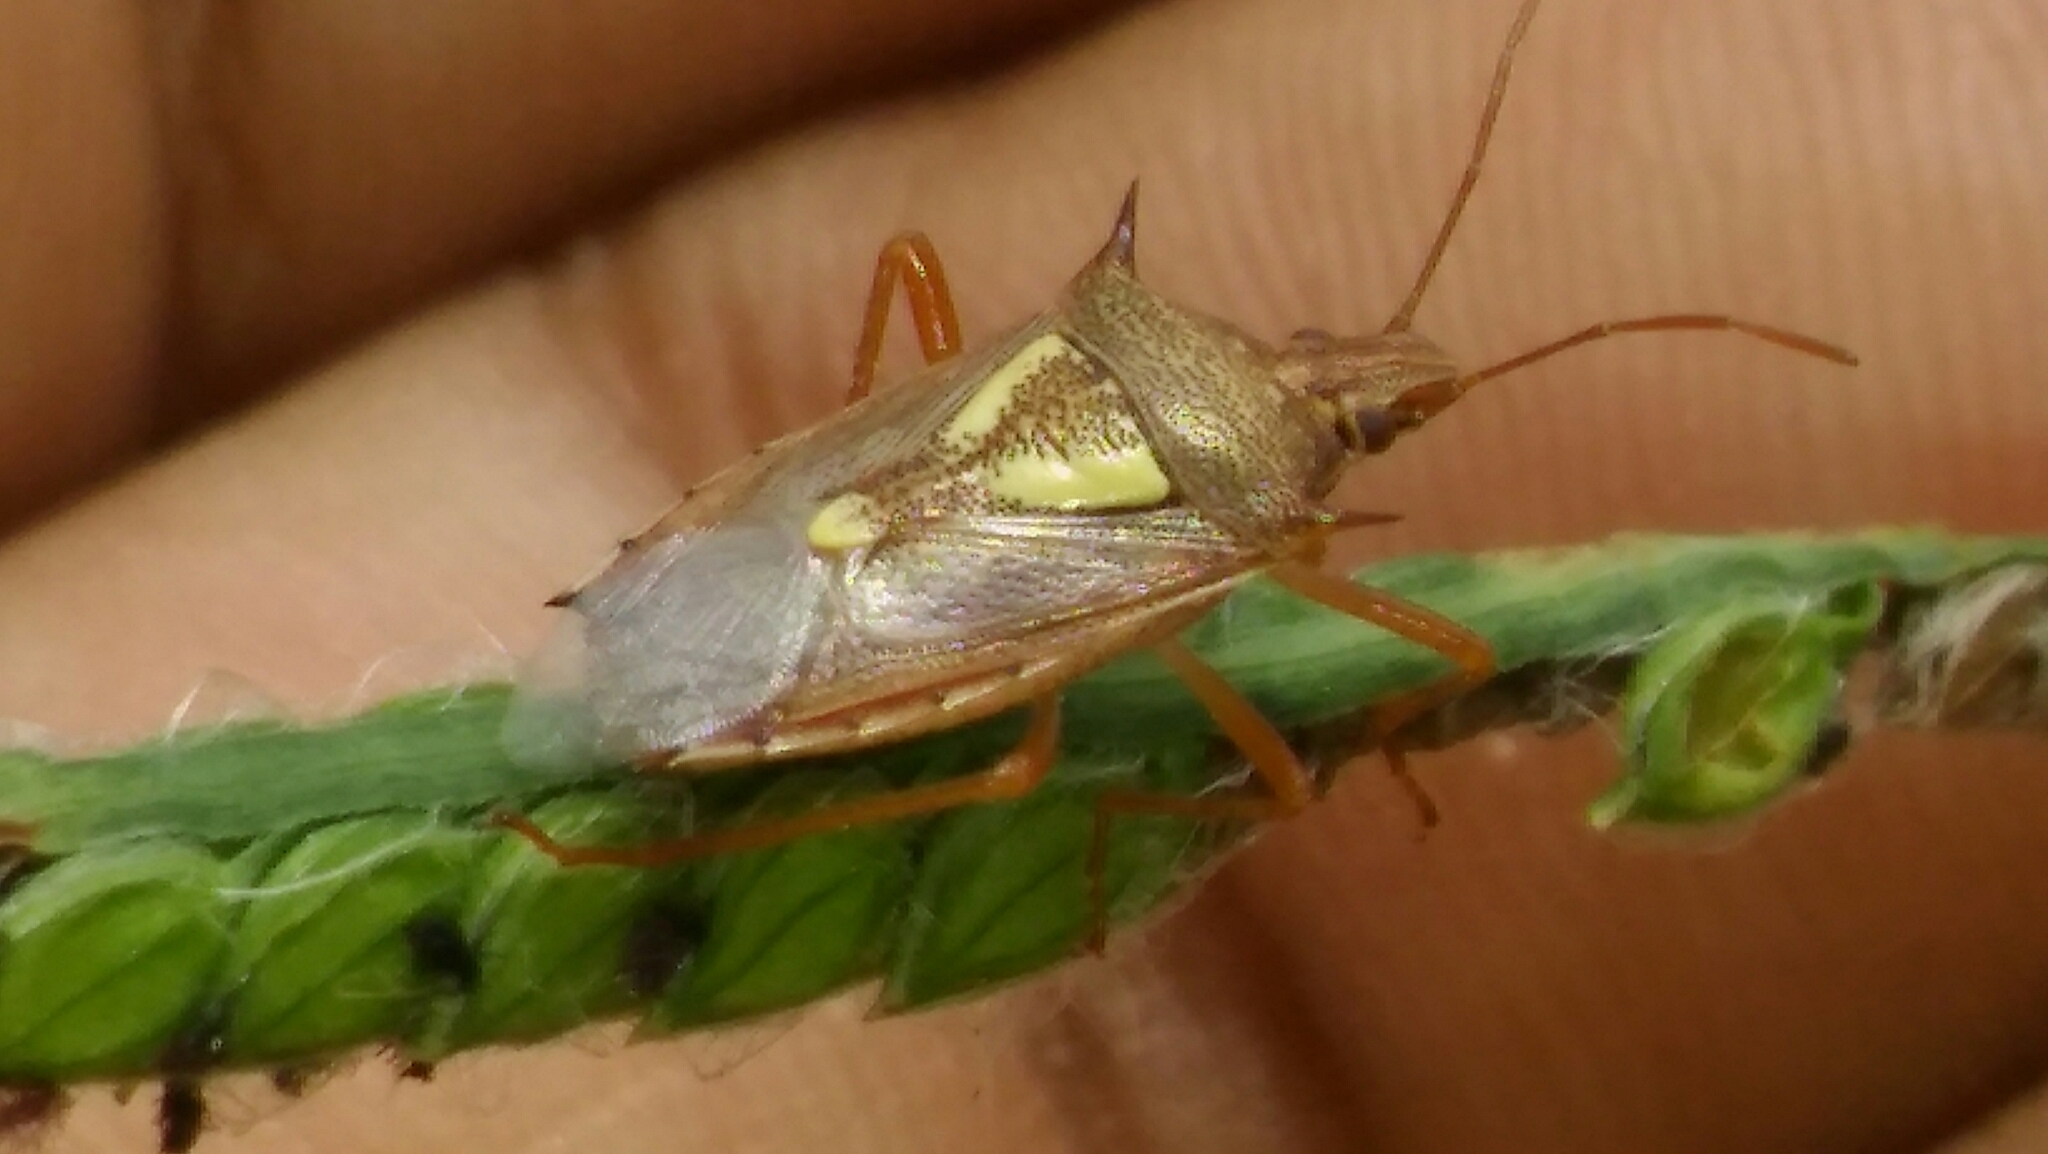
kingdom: Animalia
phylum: Arthropoda
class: Insecta
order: Hemiptera
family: Pentatomidae
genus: Oebalus
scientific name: Oebalus ypsilongriseus
